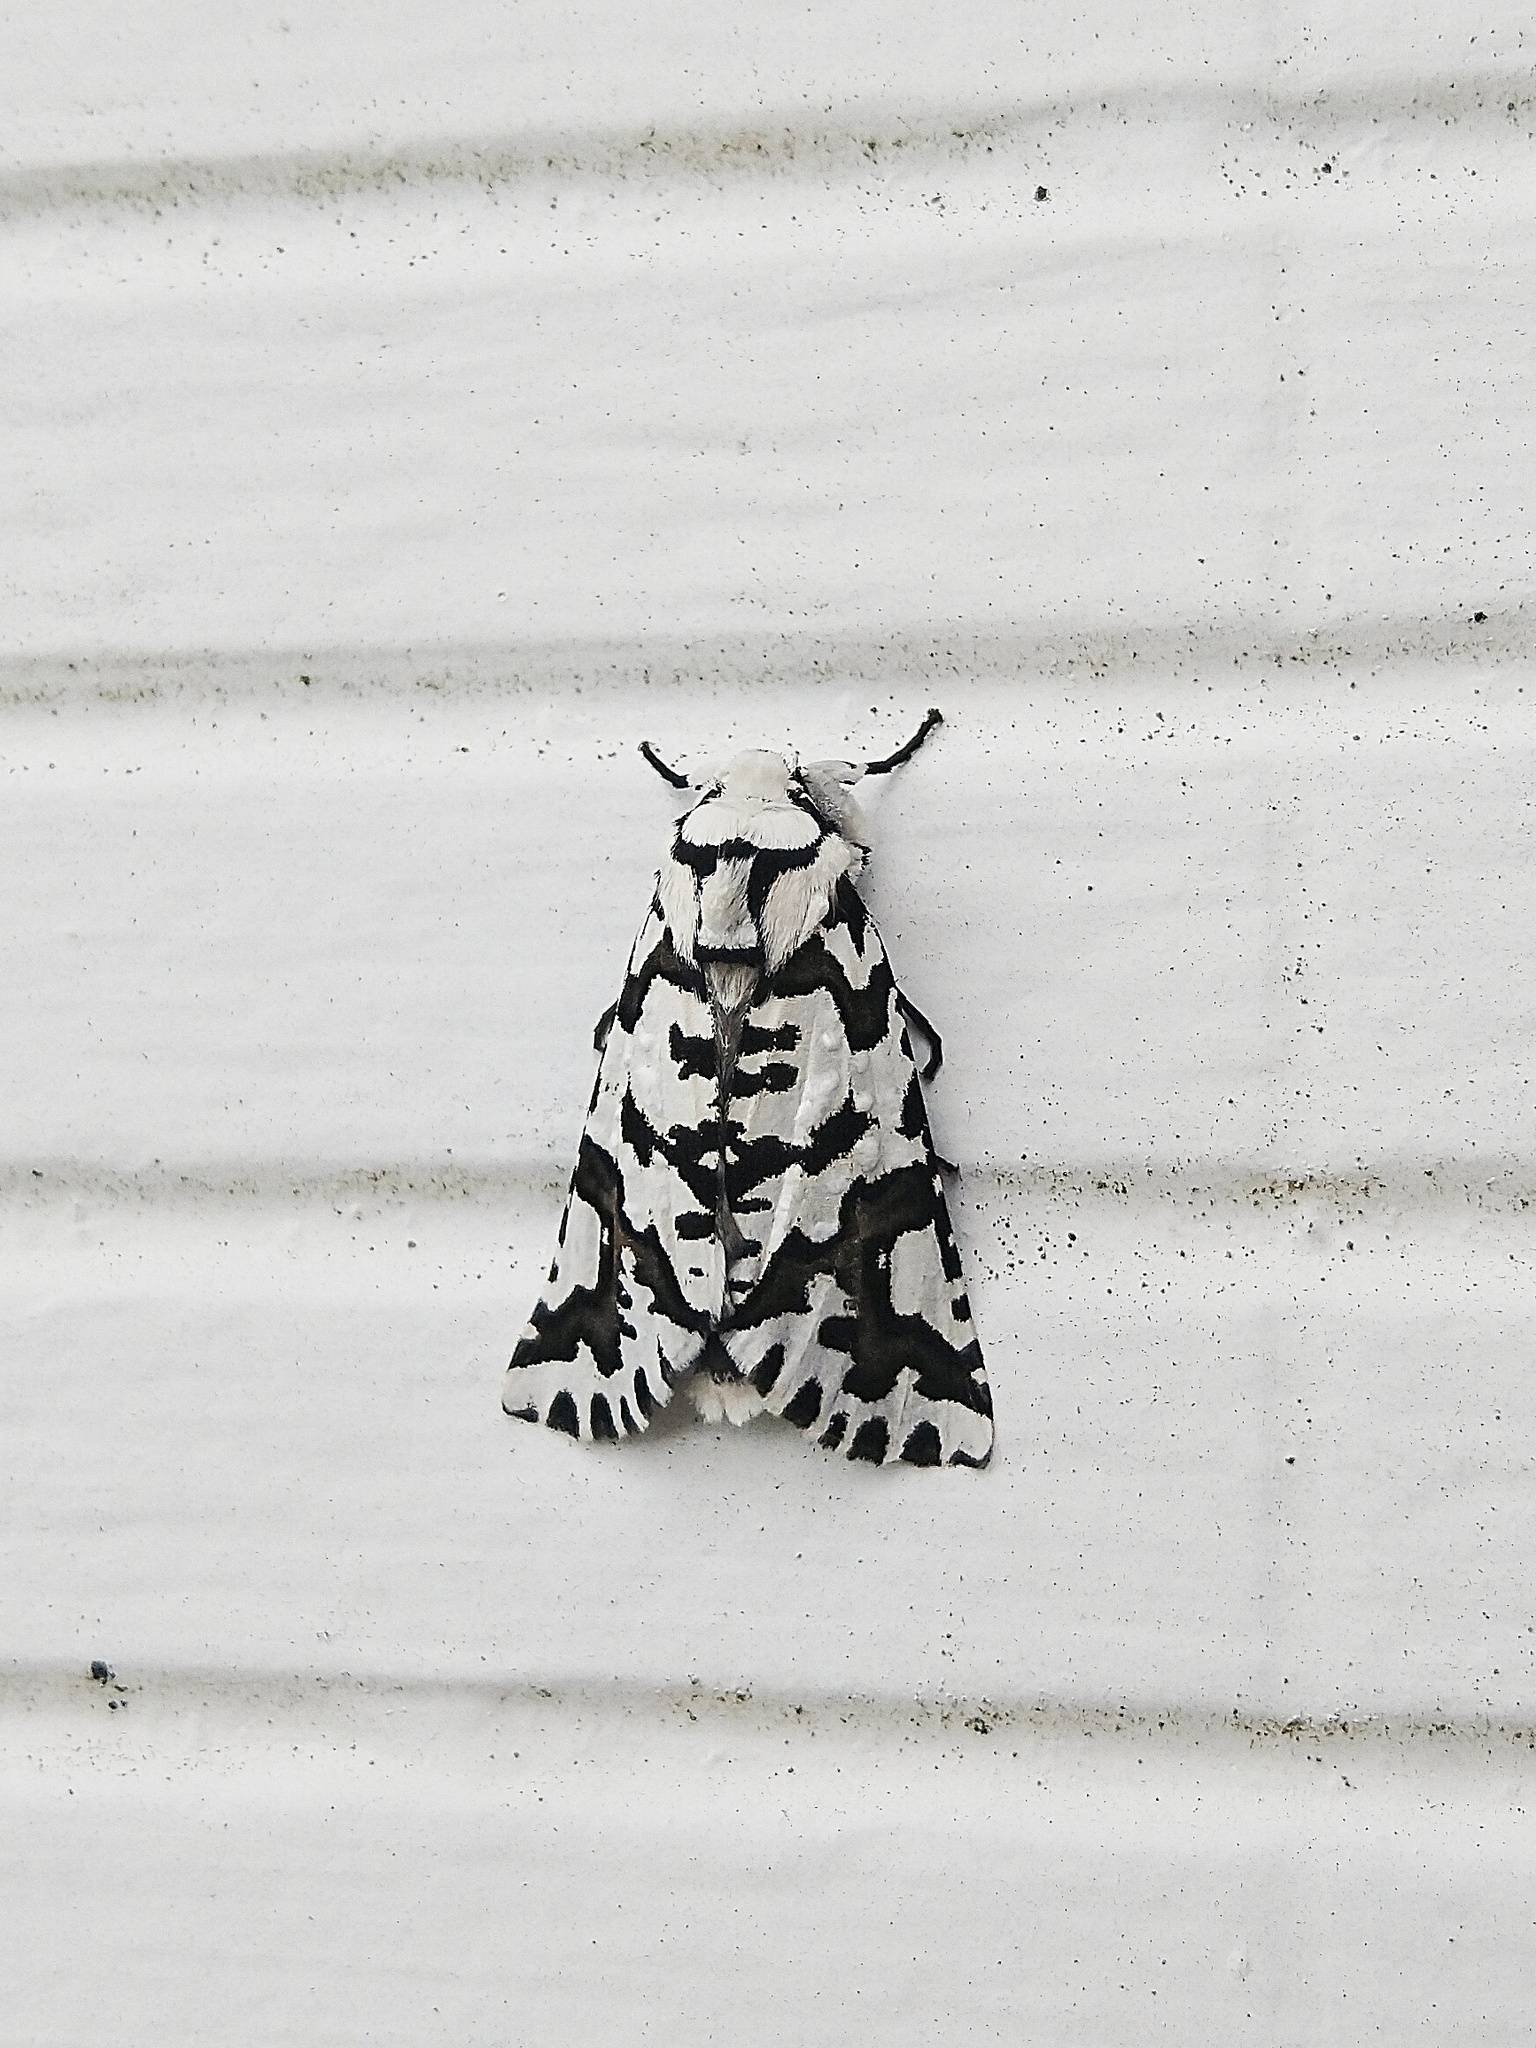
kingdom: Animalia
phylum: Arthropoda
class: Insecta
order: Lepidoptera
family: Geometridae
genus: Declana
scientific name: Declana
